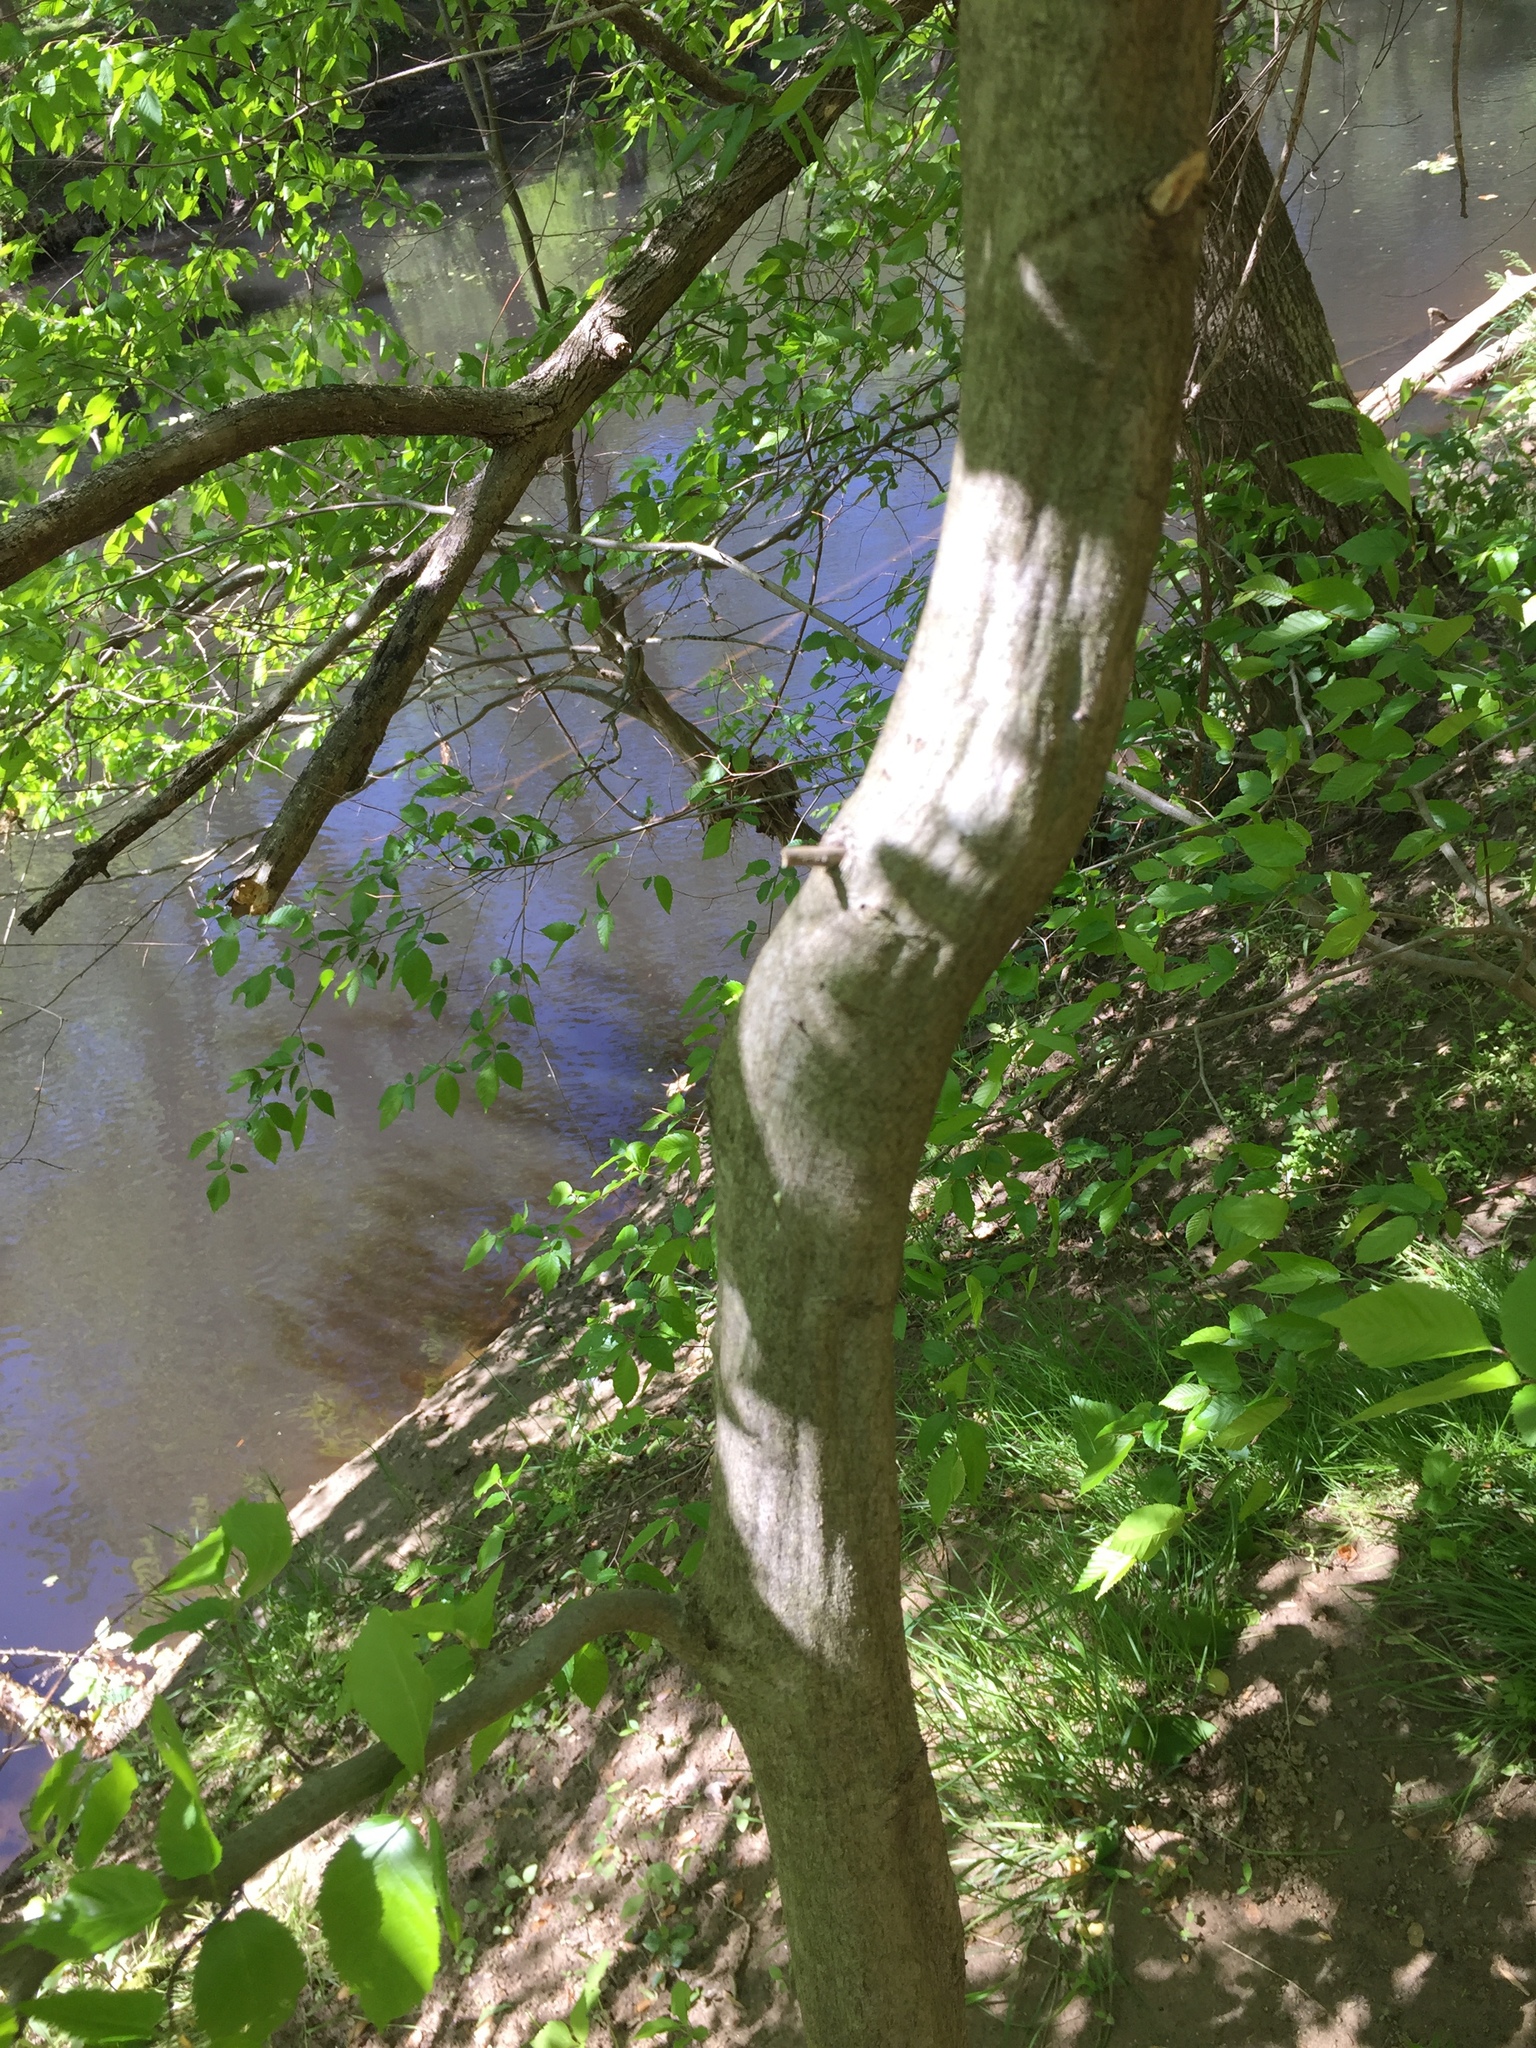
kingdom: Plantae
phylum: Tracheophyta
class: Magnoliopsida
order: Fagales
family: Betulaceae
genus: Carpinus
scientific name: Carpinus caroliniana
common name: American hornbeam
